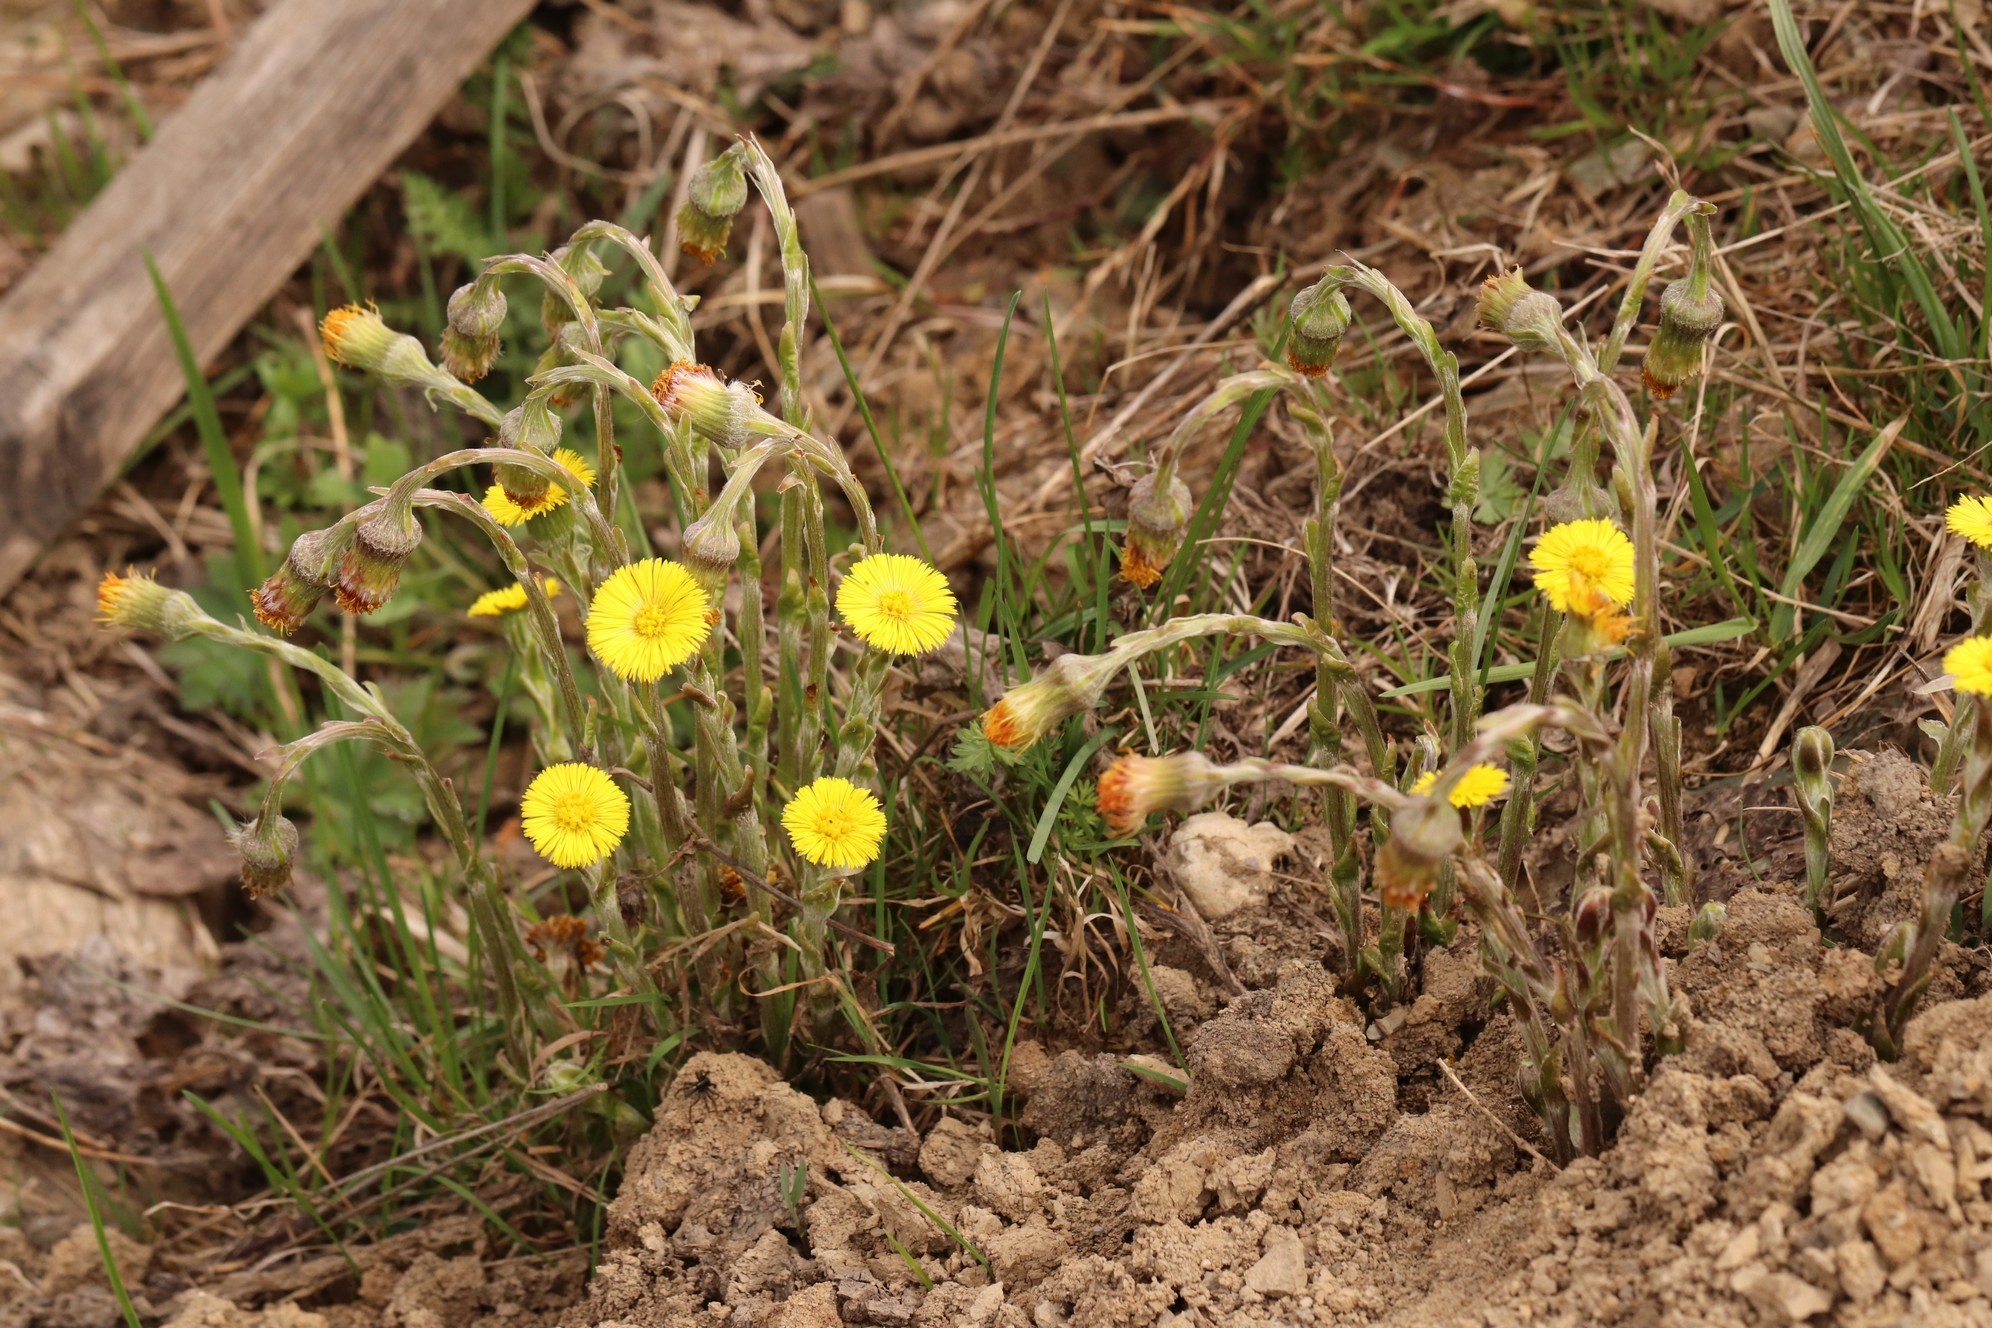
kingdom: Plantae
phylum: Tracheophyta
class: Magnoliopsida
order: Asterales
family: Asteraceae
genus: Tussilago
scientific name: Tussilago farfara
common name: Coltsfoot
